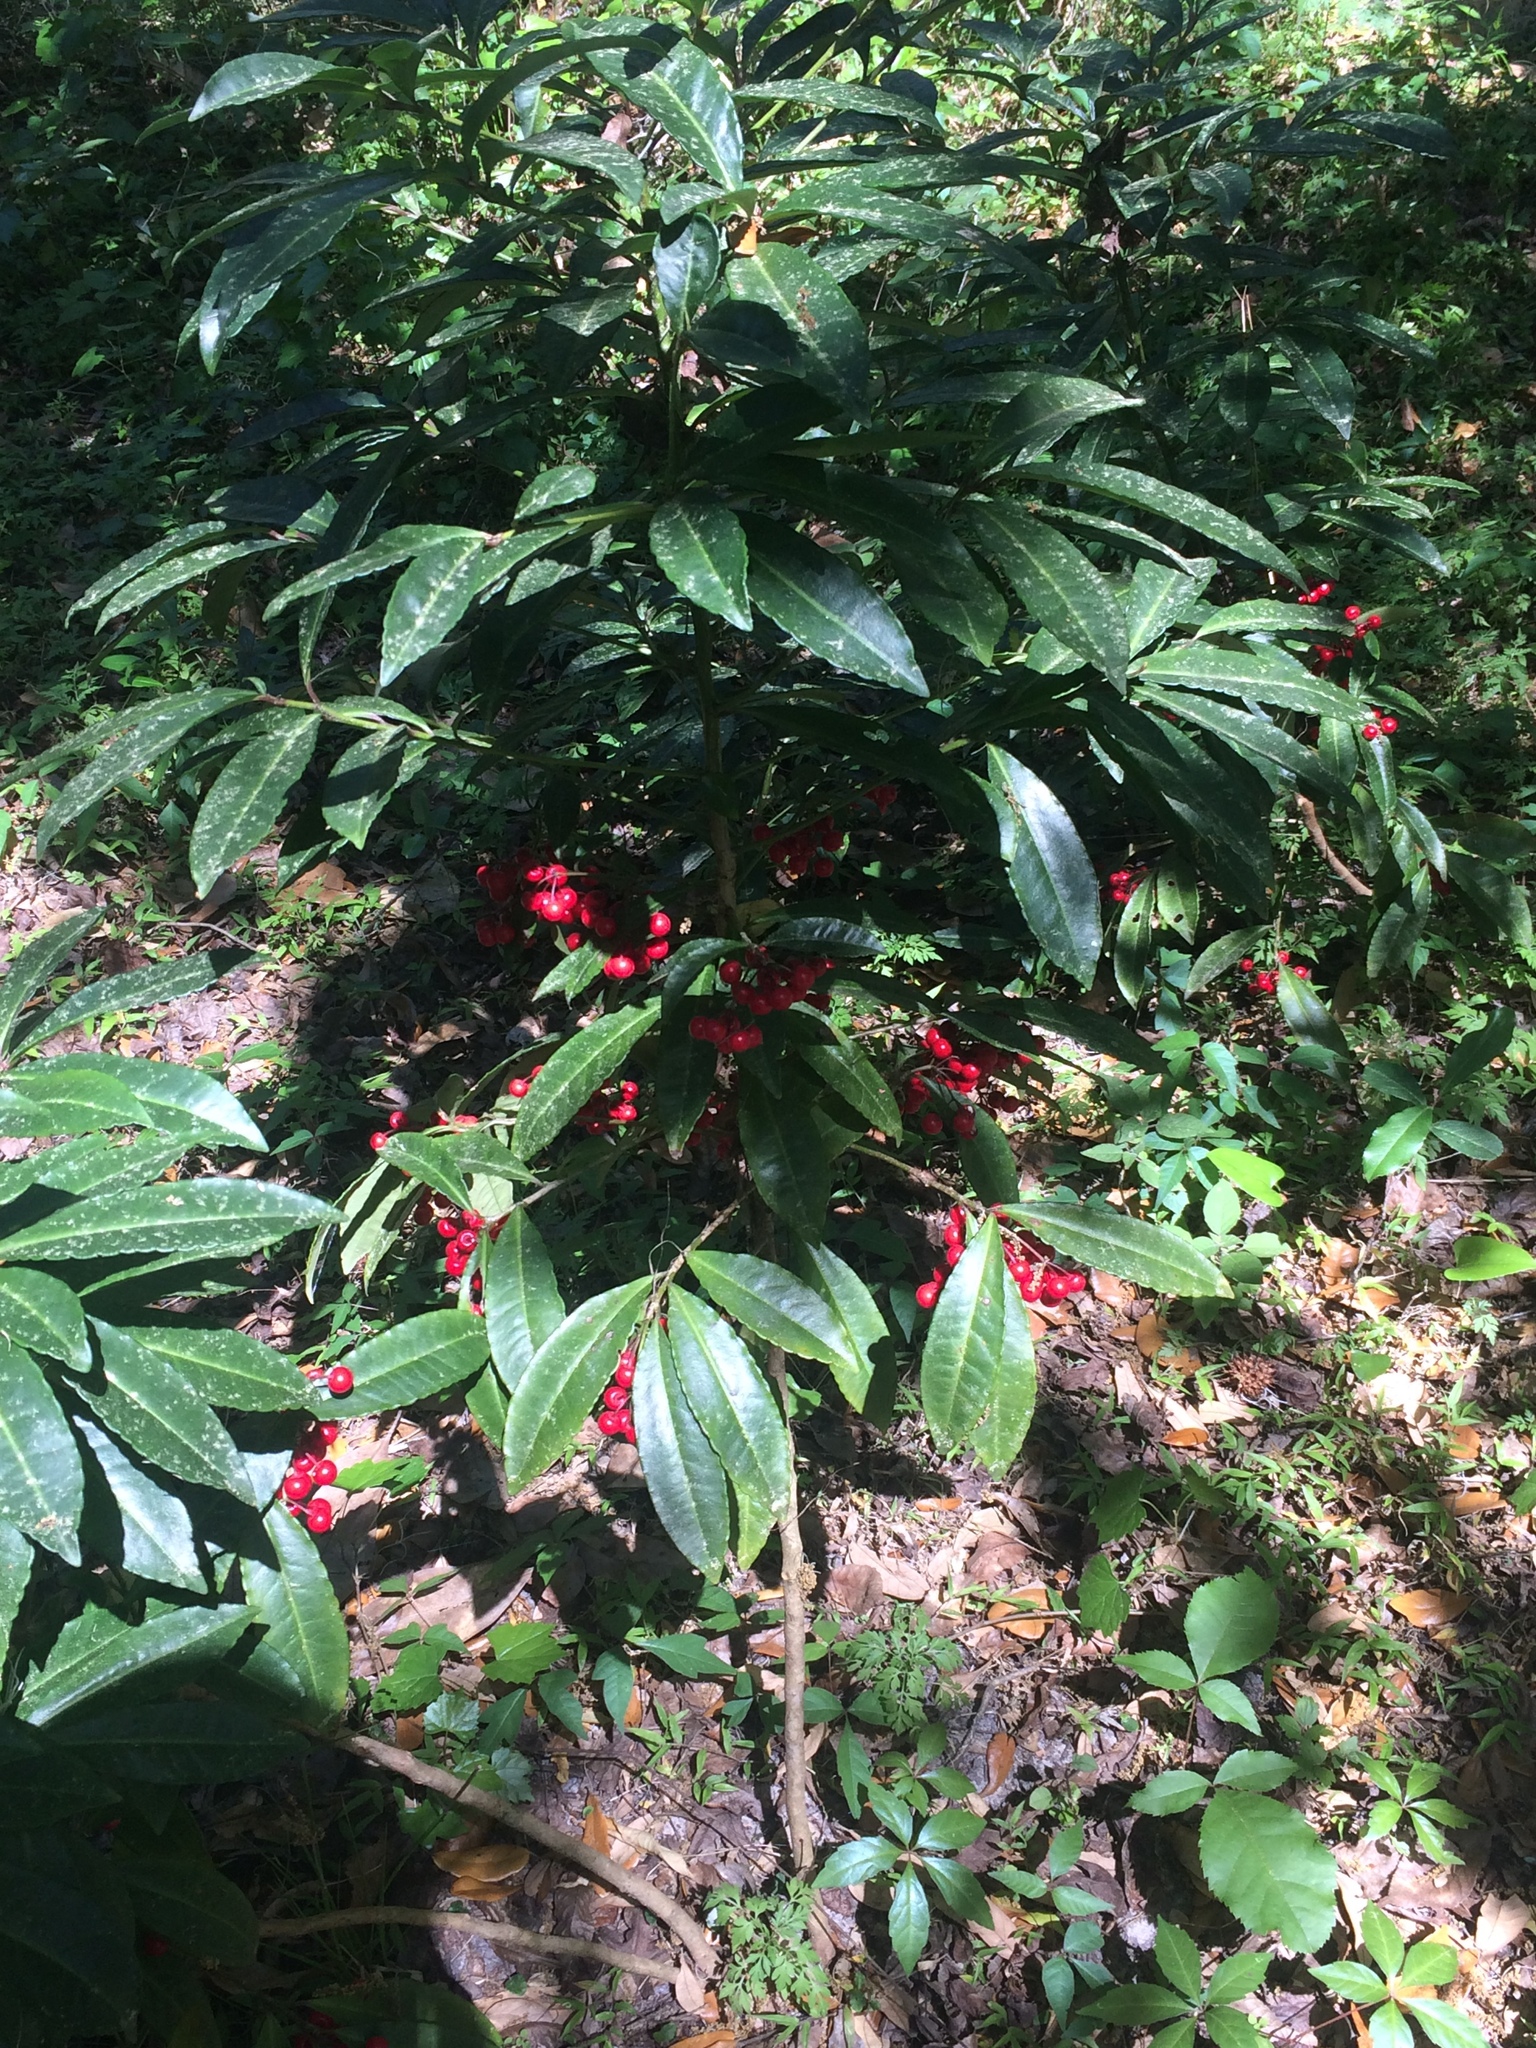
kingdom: Plantae
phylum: Tracheophyta
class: Magnoliopsida
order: Ericales
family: Primulaceae
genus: Ardisia
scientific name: Ardisia crenata
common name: Hen's eyes
